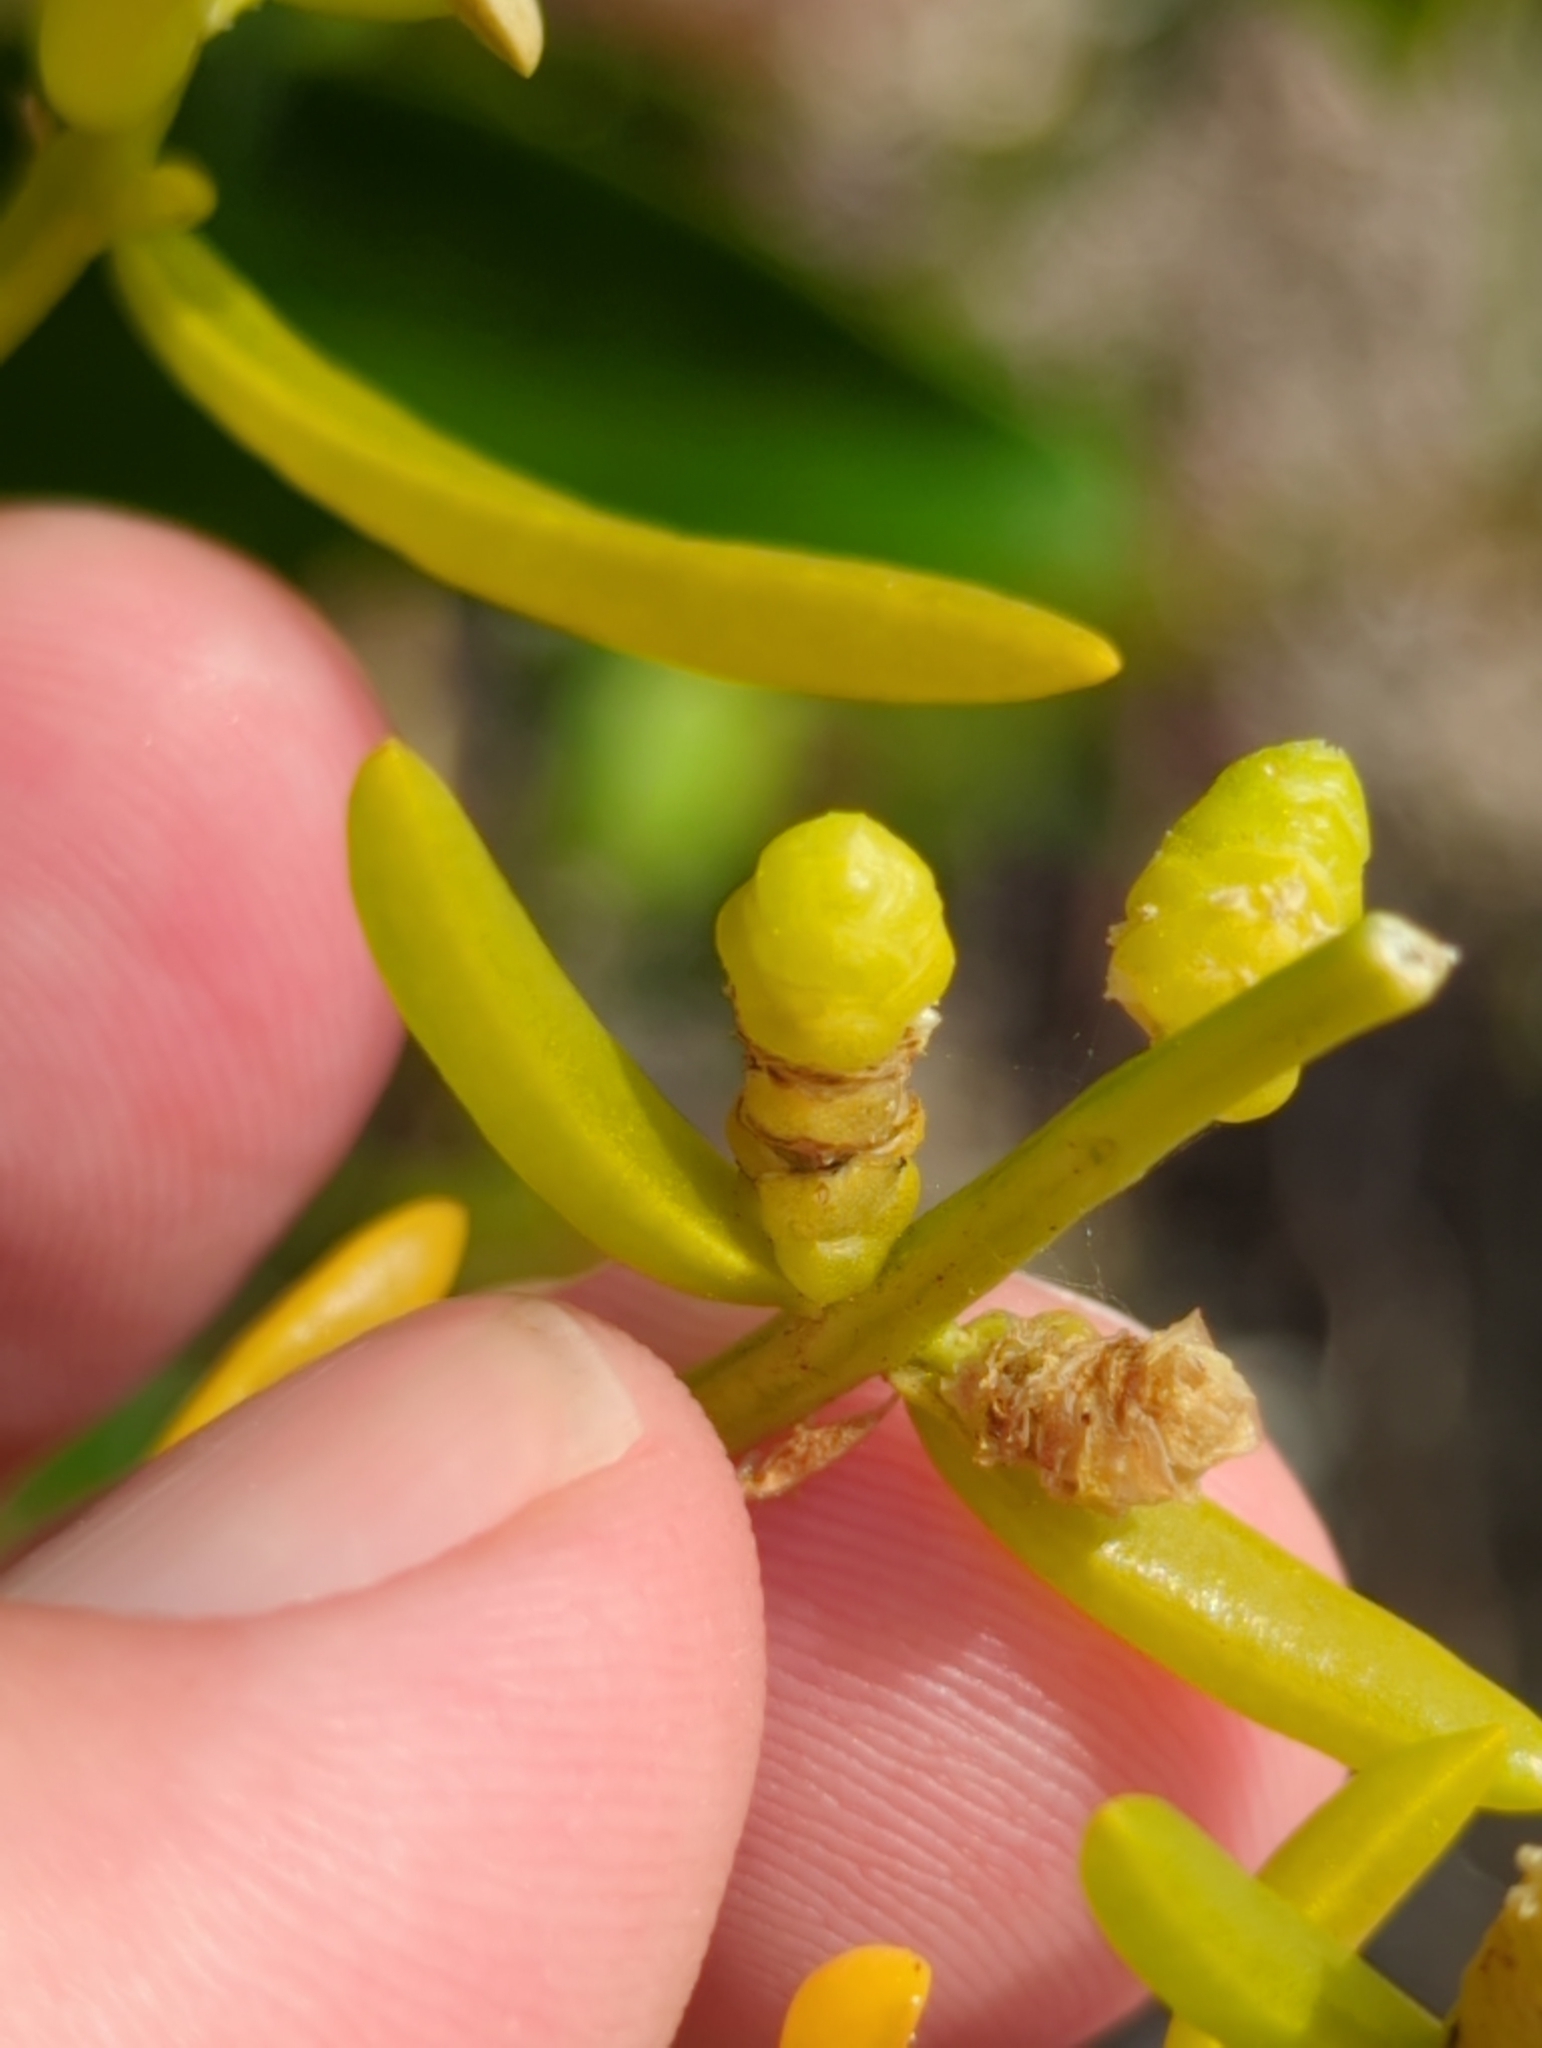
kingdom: Plantae
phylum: Tracheophyta
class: Magnoliopsida
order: Brassicales
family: Bataceae
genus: Batis
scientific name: Batis maritima
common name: Turtleweed
